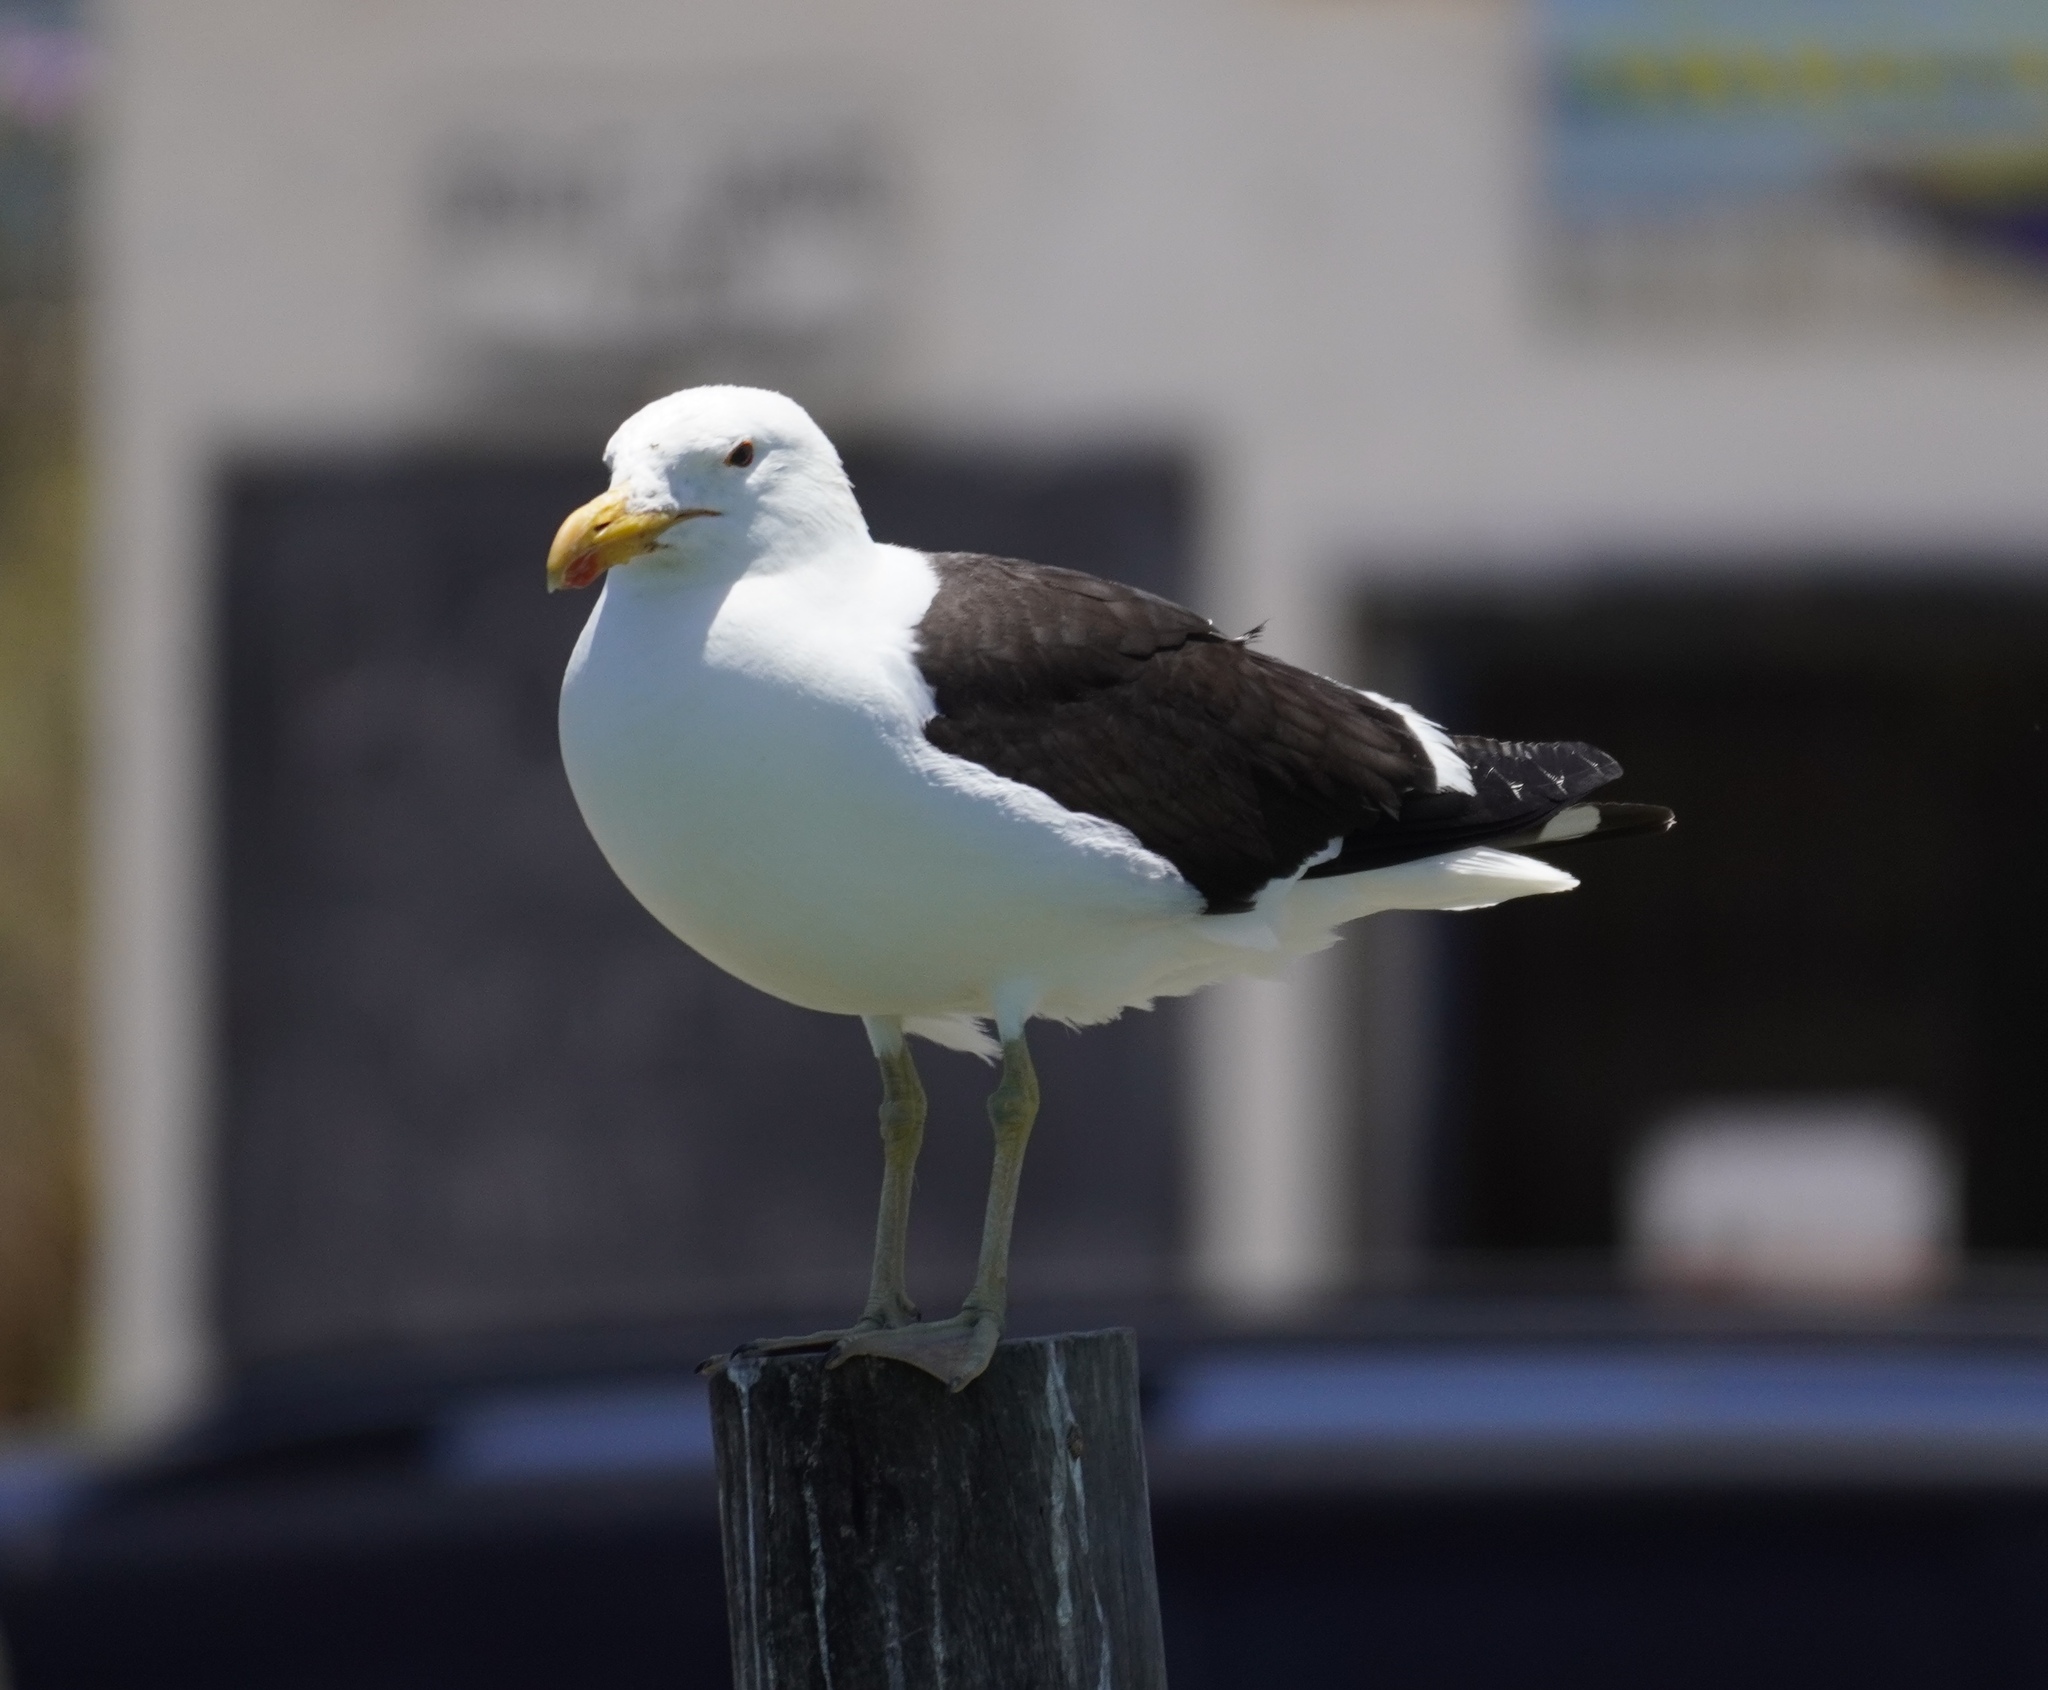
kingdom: Animalia
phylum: Chordata
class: Aves
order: Charadriiformes
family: Laridae
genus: Larus
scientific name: Larus dominicanus
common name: Kelp gull
